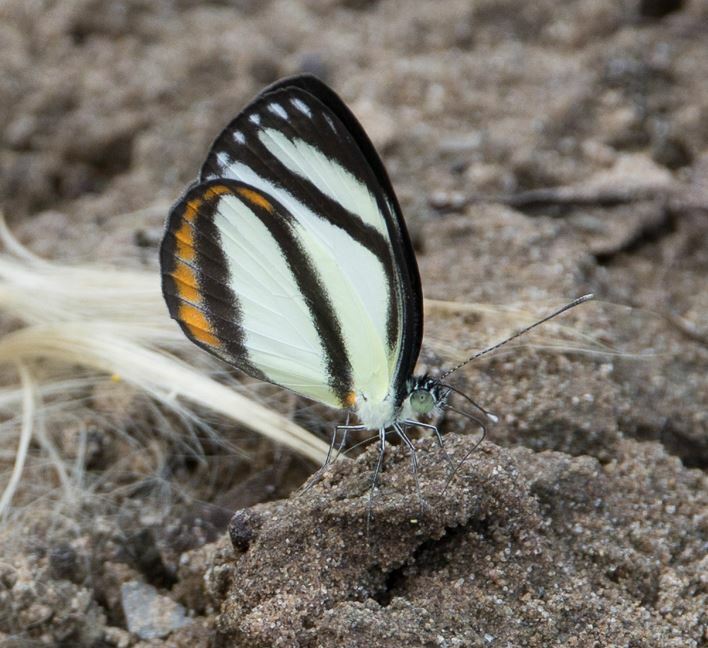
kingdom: Animalia
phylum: Arthropoda
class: Insecta
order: Lepidoptera
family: Pieridae
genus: Itaballia
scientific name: Itaballia pandosia
